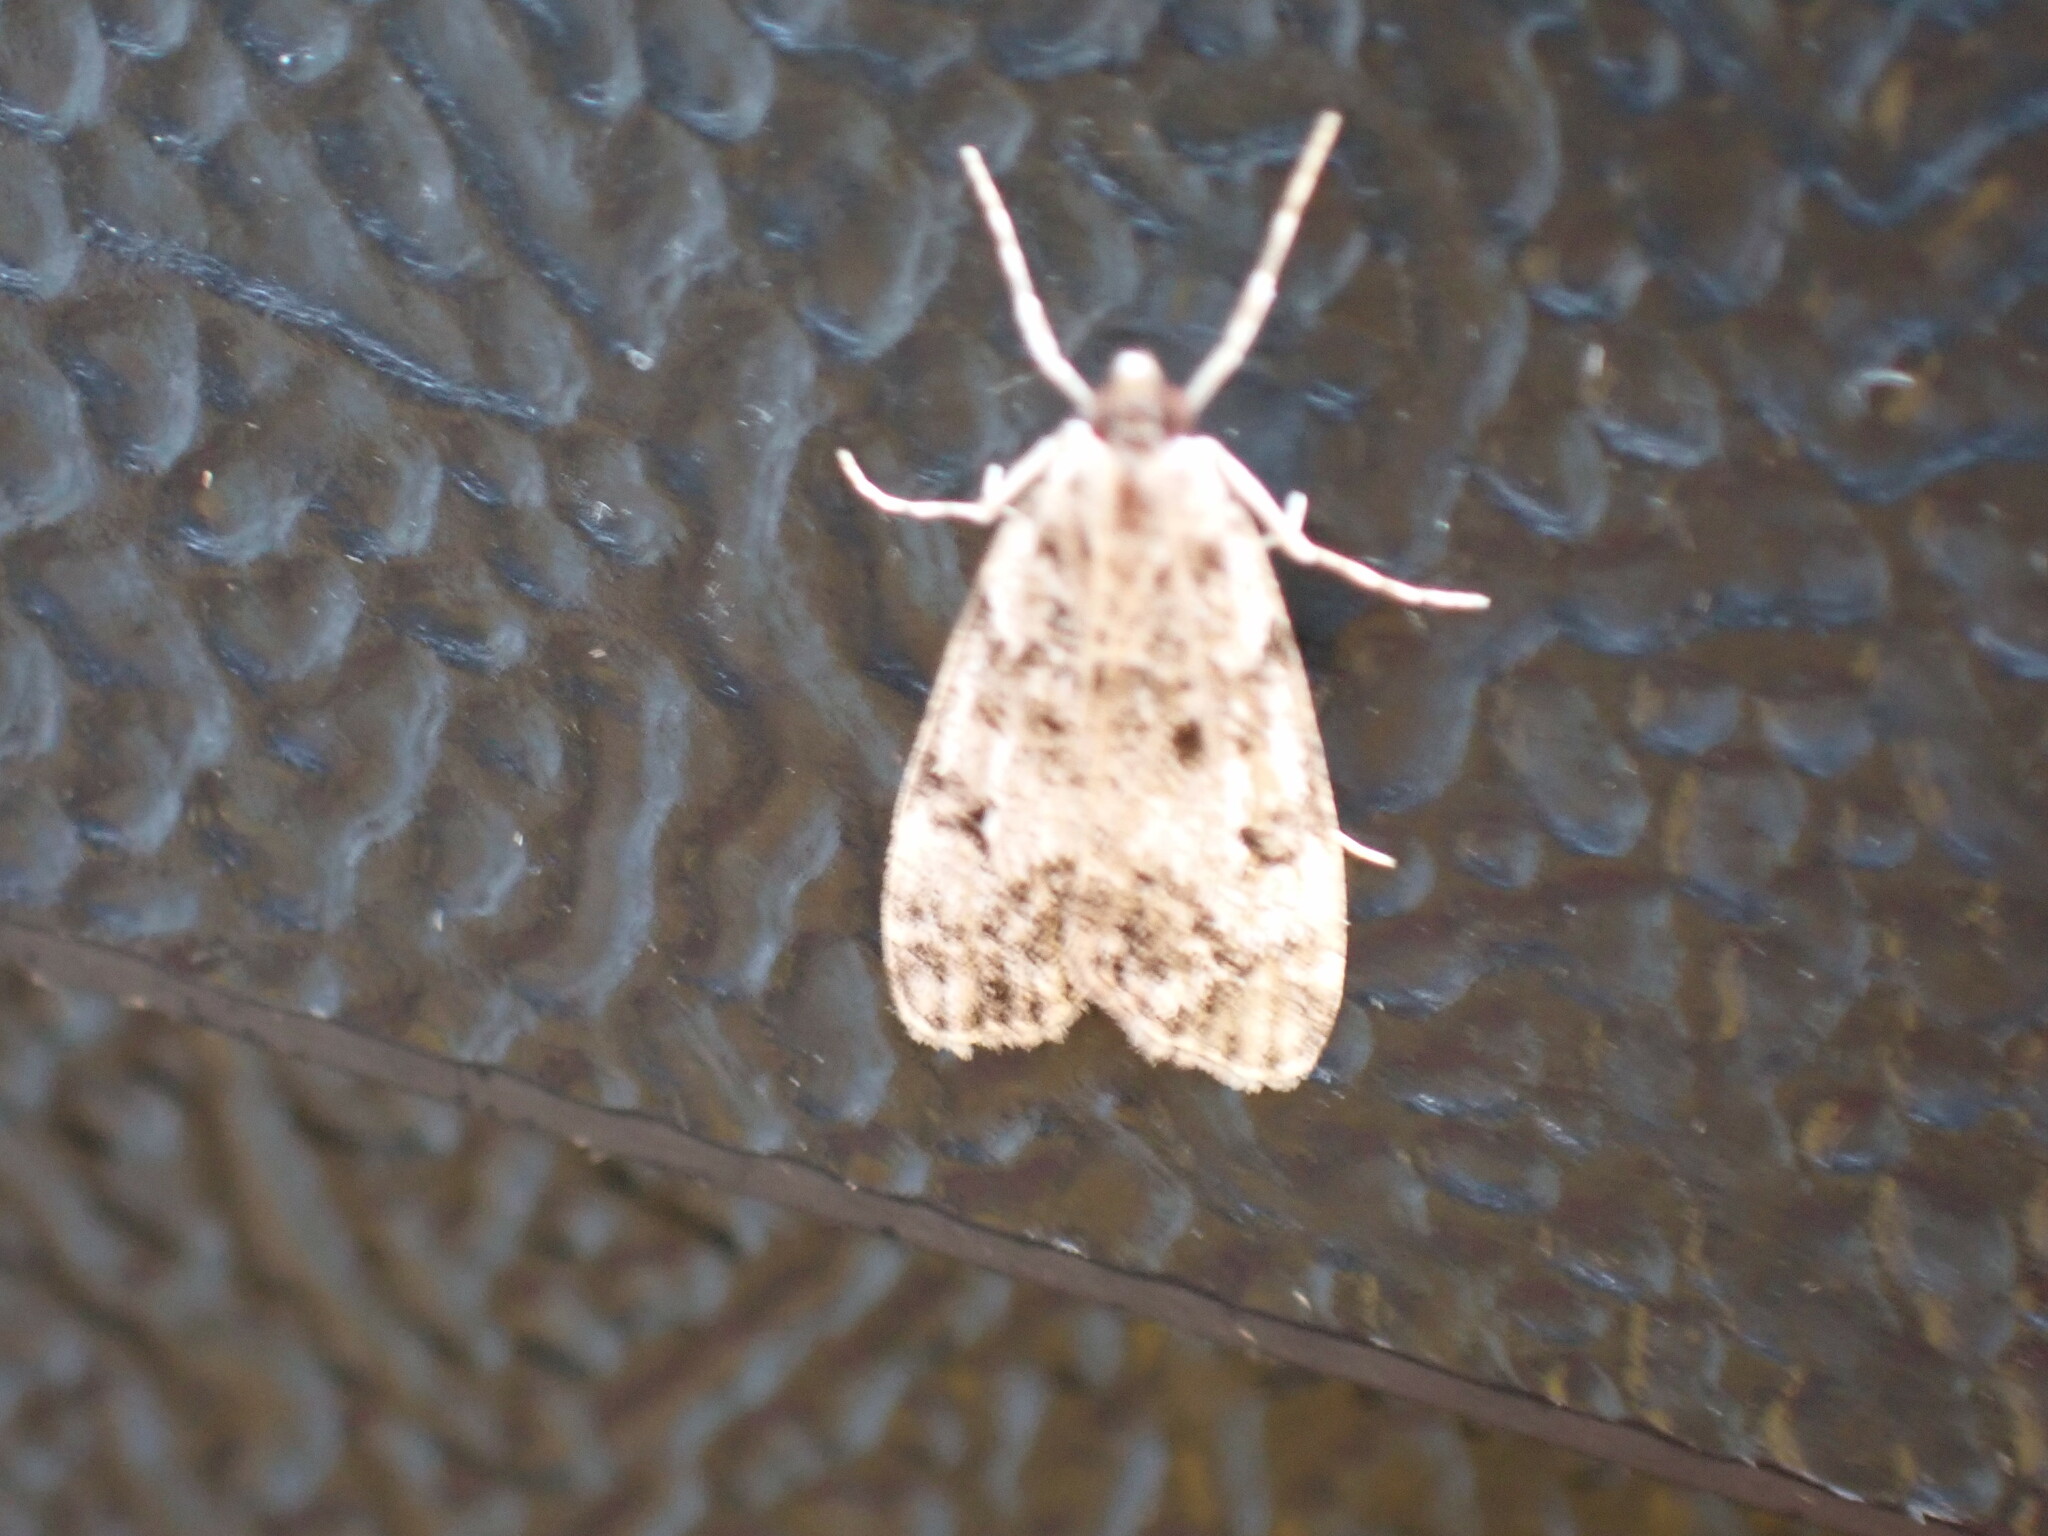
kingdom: Animalia
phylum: Arthropoda
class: Insecta
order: Lepidoptera
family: Crambidae
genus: Eudonia
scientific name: Eudonia lacustrata
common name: Little grey
